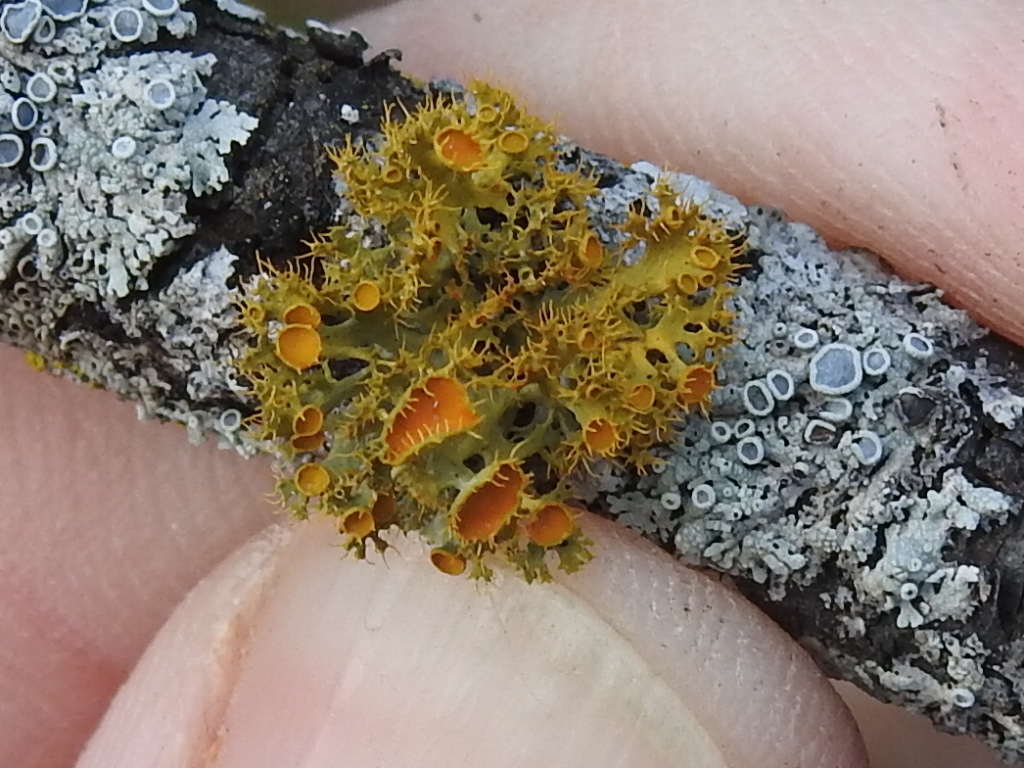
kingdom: Fungi
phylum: Ascomycota
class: Lecanoromycetes
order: Teloschistales
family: Teloschistaceae
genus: Niorma
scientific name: Niorma chrysophthalma
